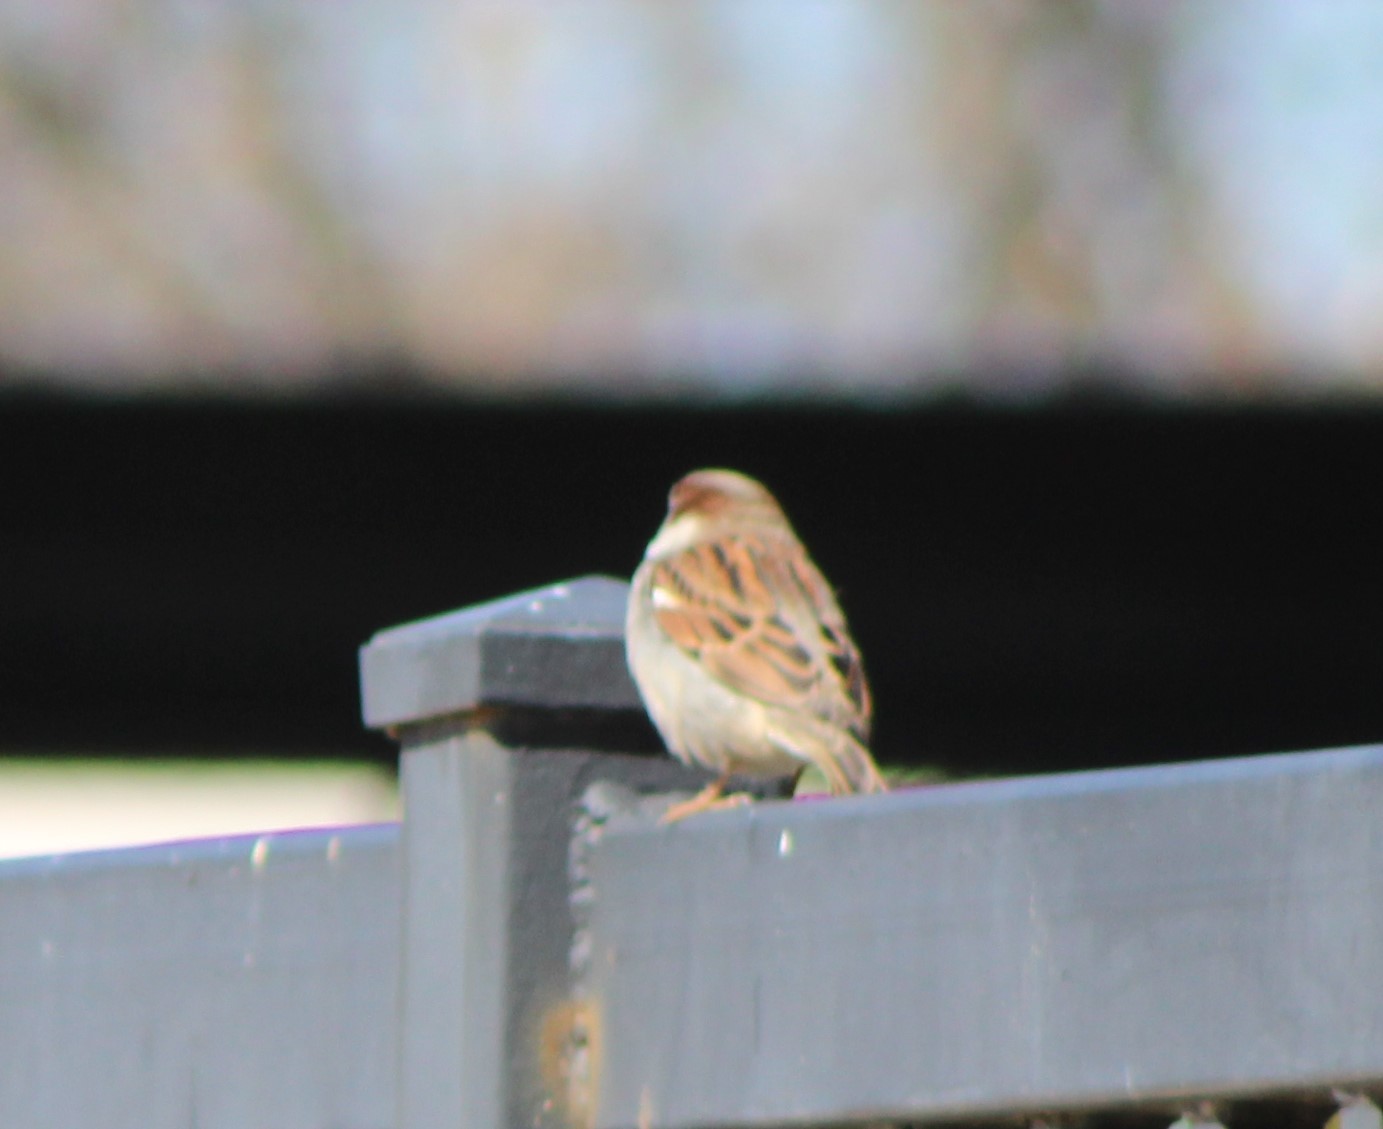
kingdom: Animalia
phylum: Chordata
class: Aves
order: Passeriformes
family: Passeridae
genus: Passer
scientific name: Passer domesticus
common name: House sparrow
